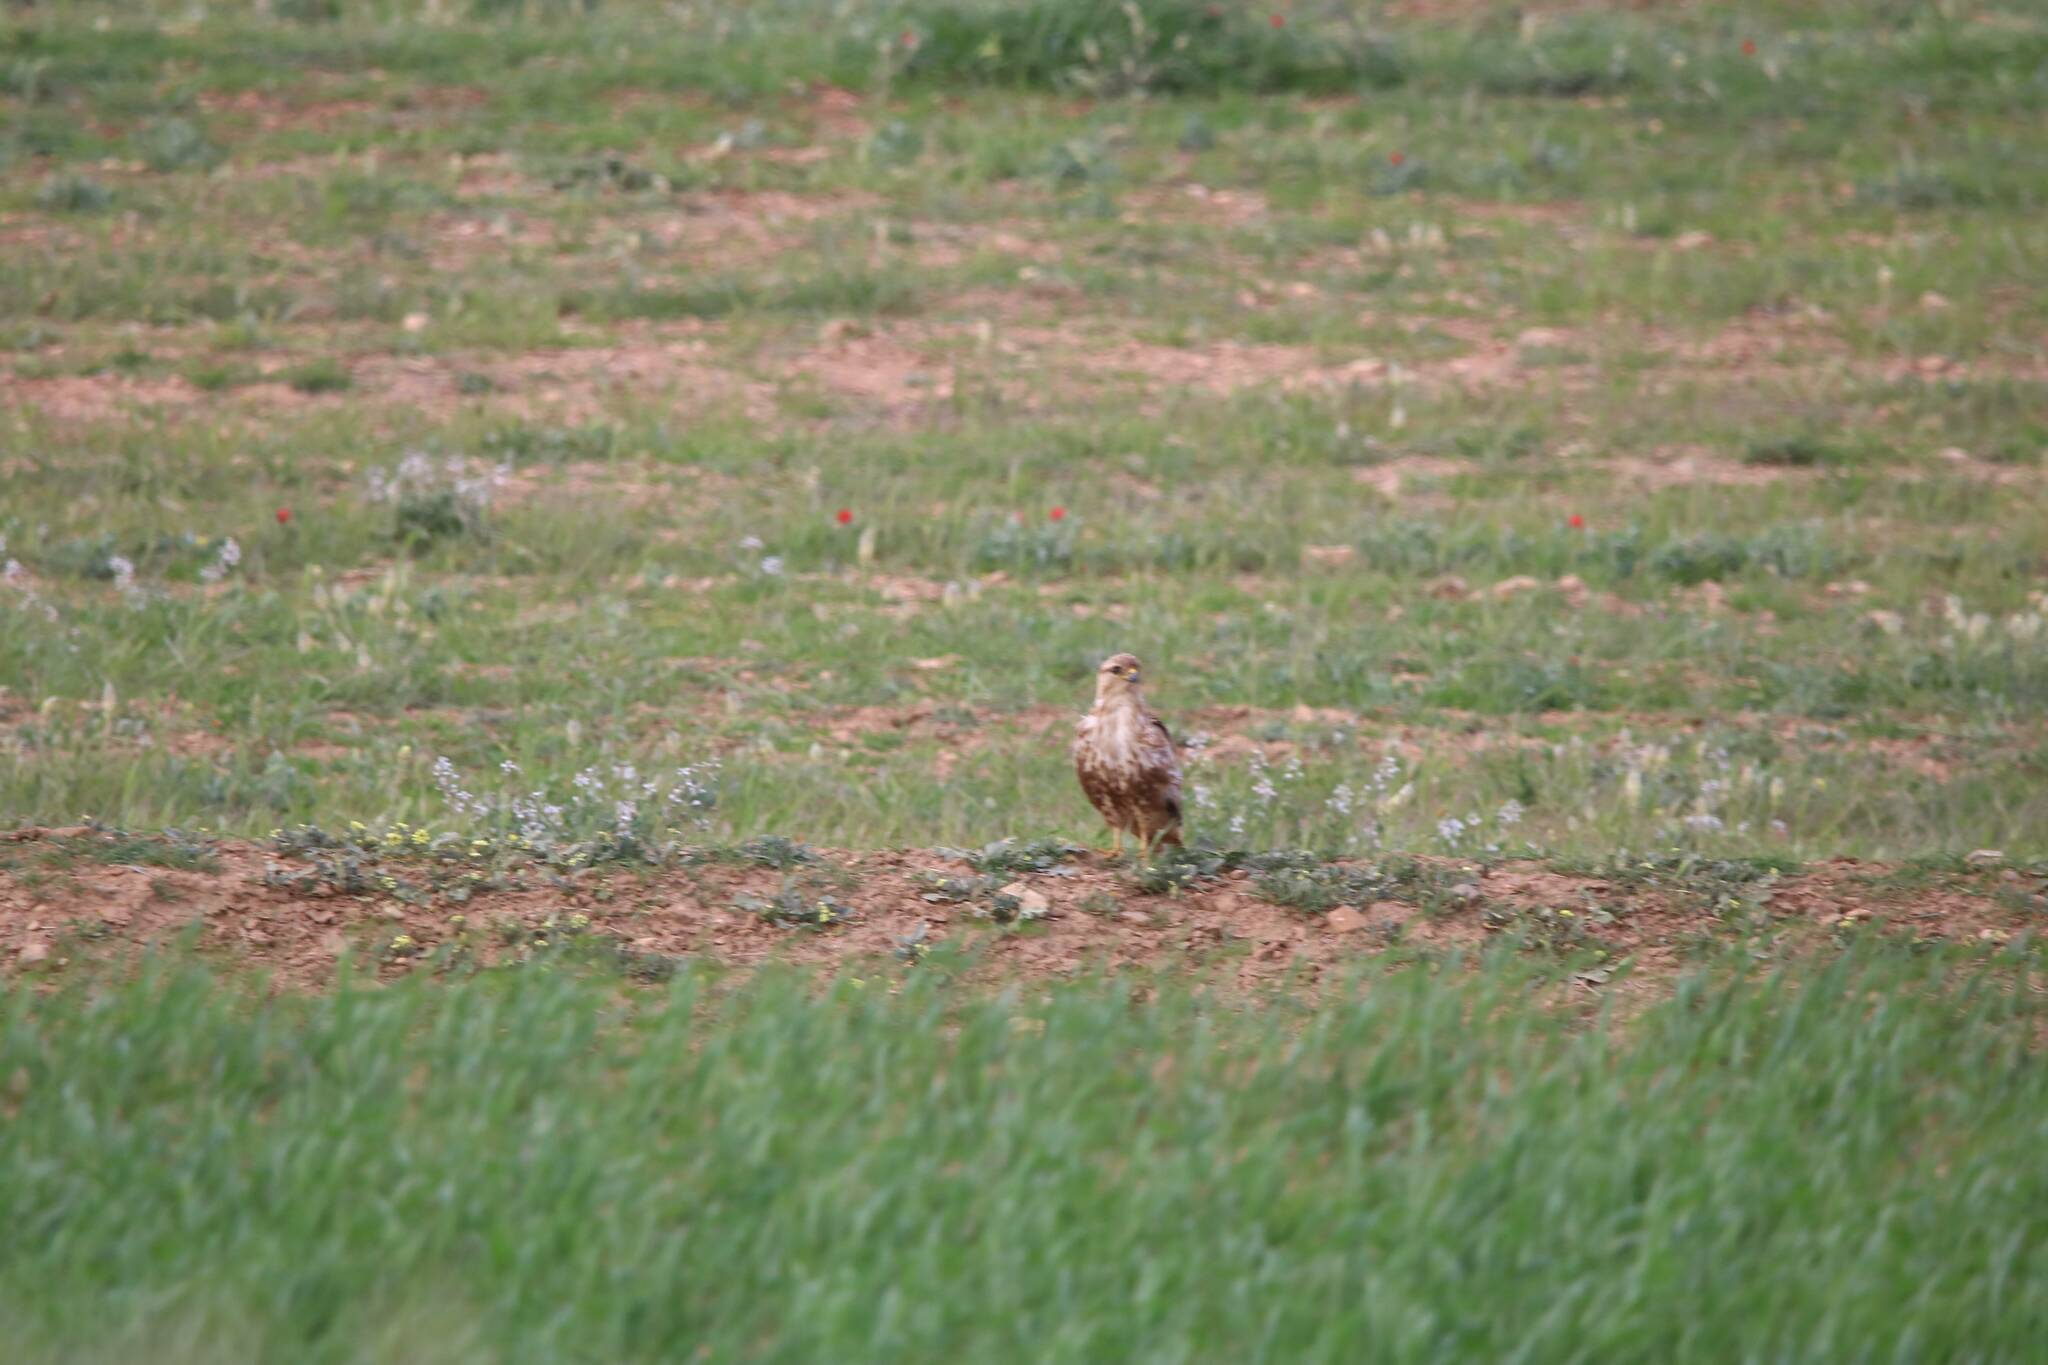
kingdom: Animalia
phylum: Chordata
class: Aves
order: Accipitriformes
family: Accipitridae
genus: Buteo
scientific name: Buteo rufinus
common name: Long-legged buzzard
